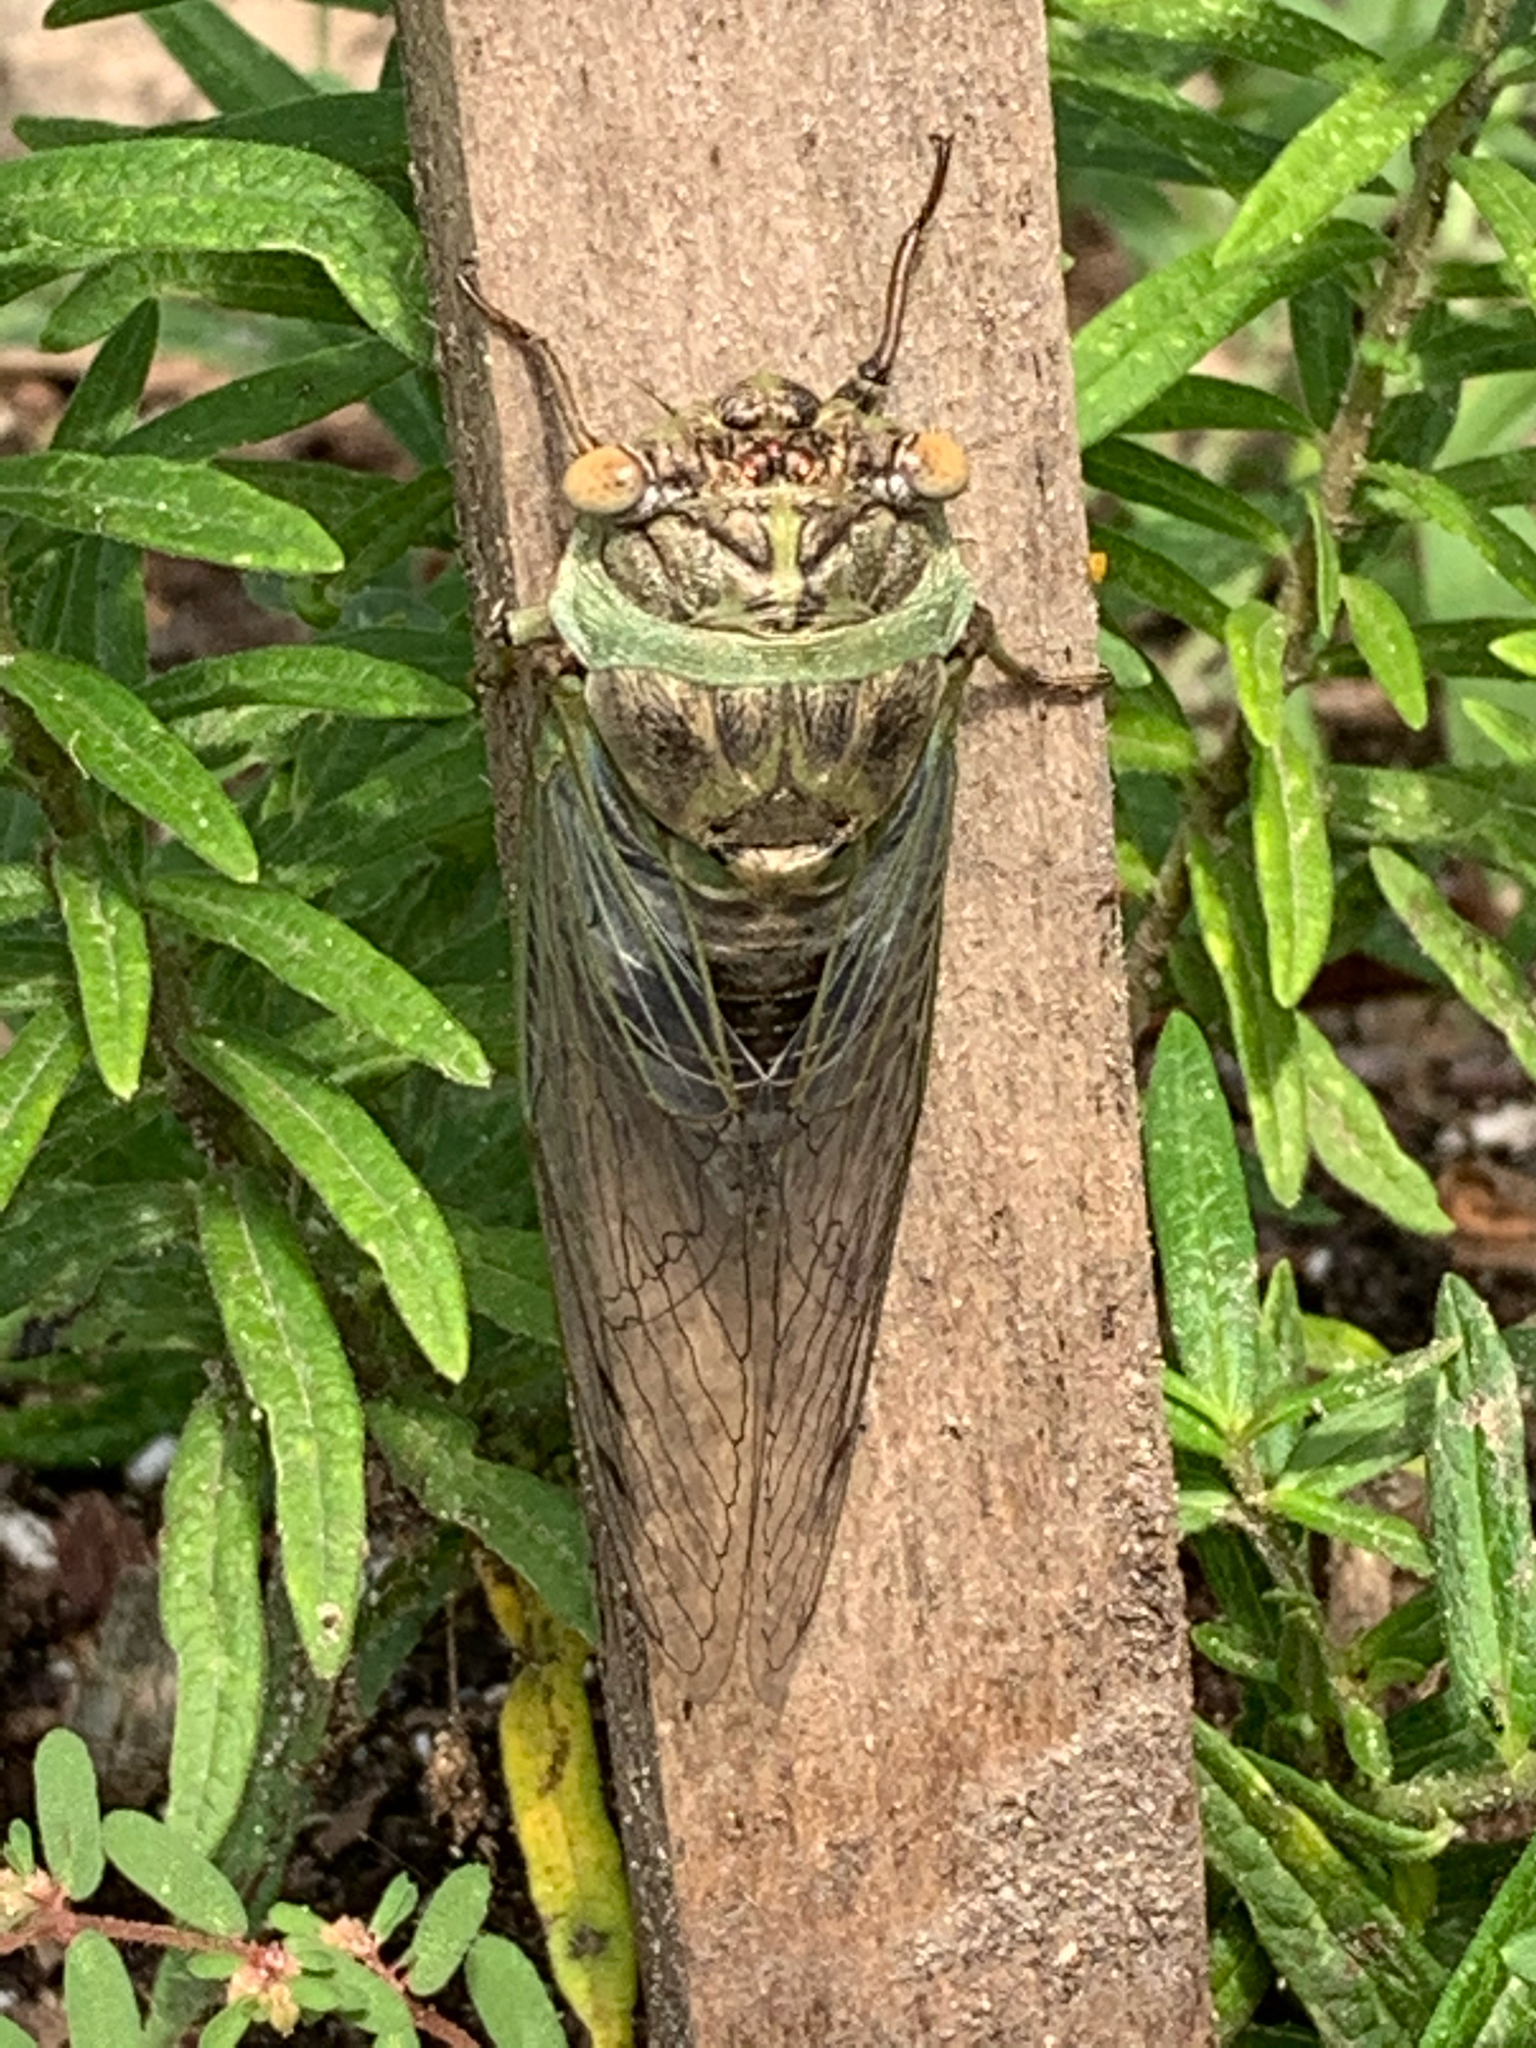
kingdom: Animalia
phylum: Arthropoda
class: Insecta
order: Hemiptera
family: Cicadidae
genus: Diceroprocta
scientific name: Diceroprocta grossa
